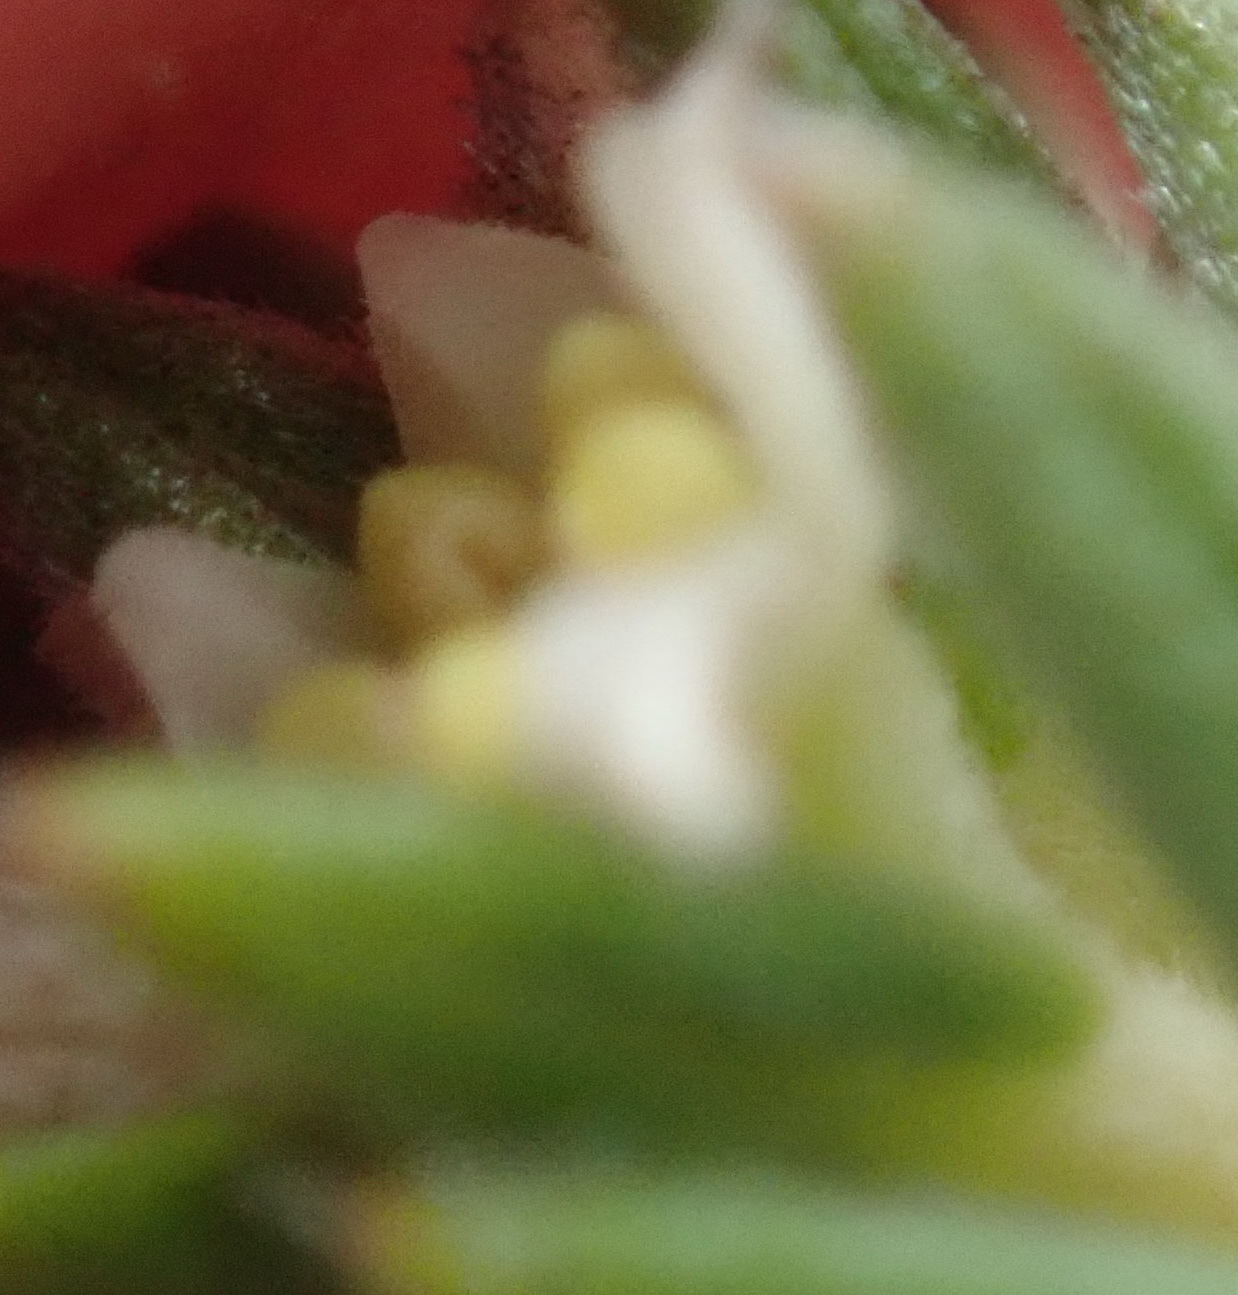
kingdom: Plantae
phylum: Tracheophyta
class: Magnoliopsida
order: Rosales
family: Rhamnaceae
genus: Phylica
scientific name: Phylica axillaris
